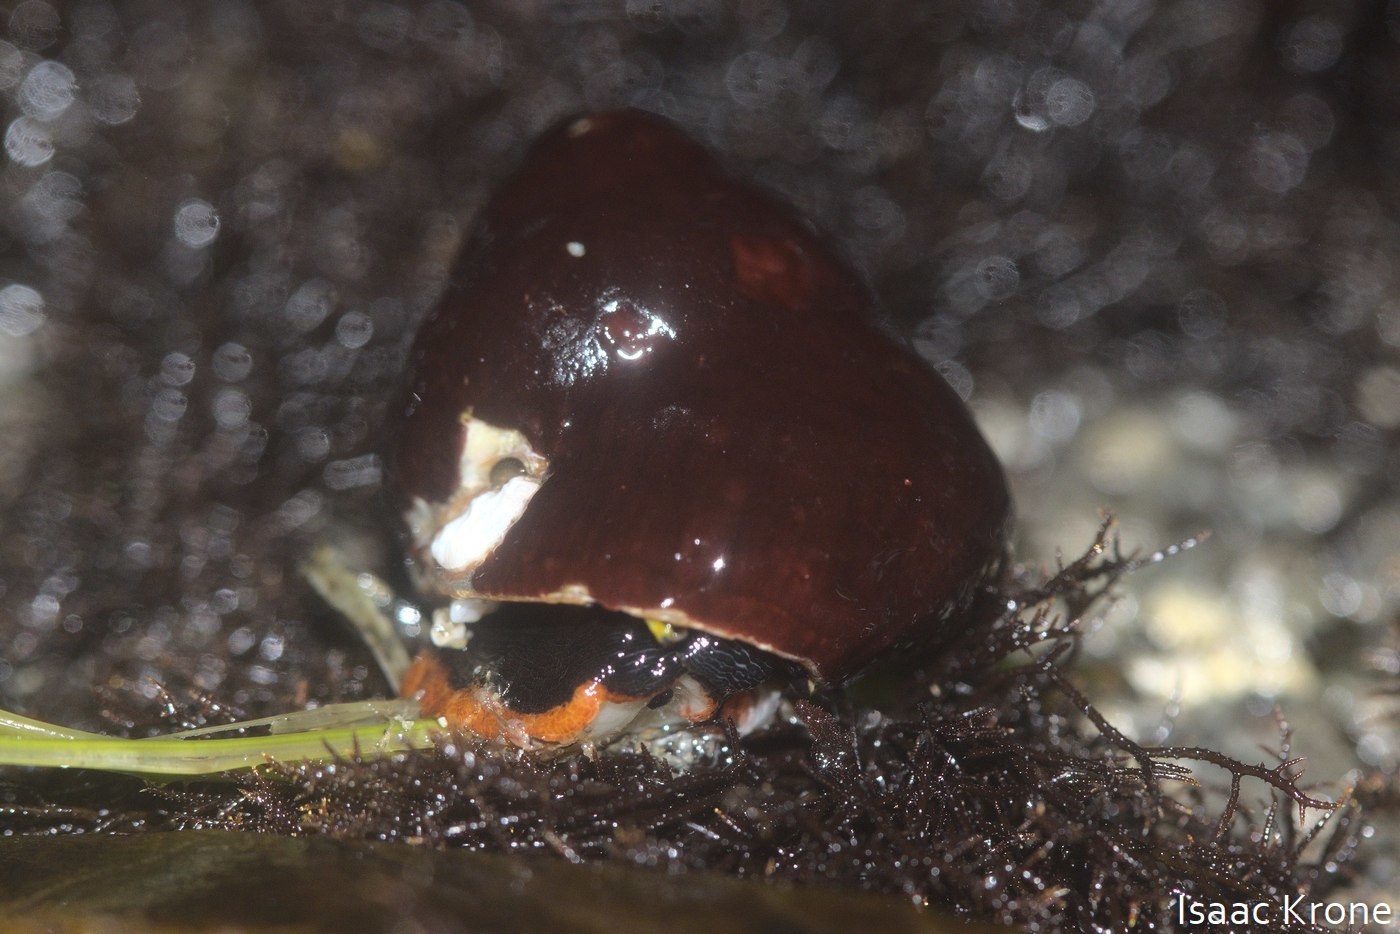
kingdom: Animalia
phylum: Mollusca
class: Gastropoda
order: Trochida
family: Tegulidae
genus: Tegula
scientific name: Tegula brunnea
